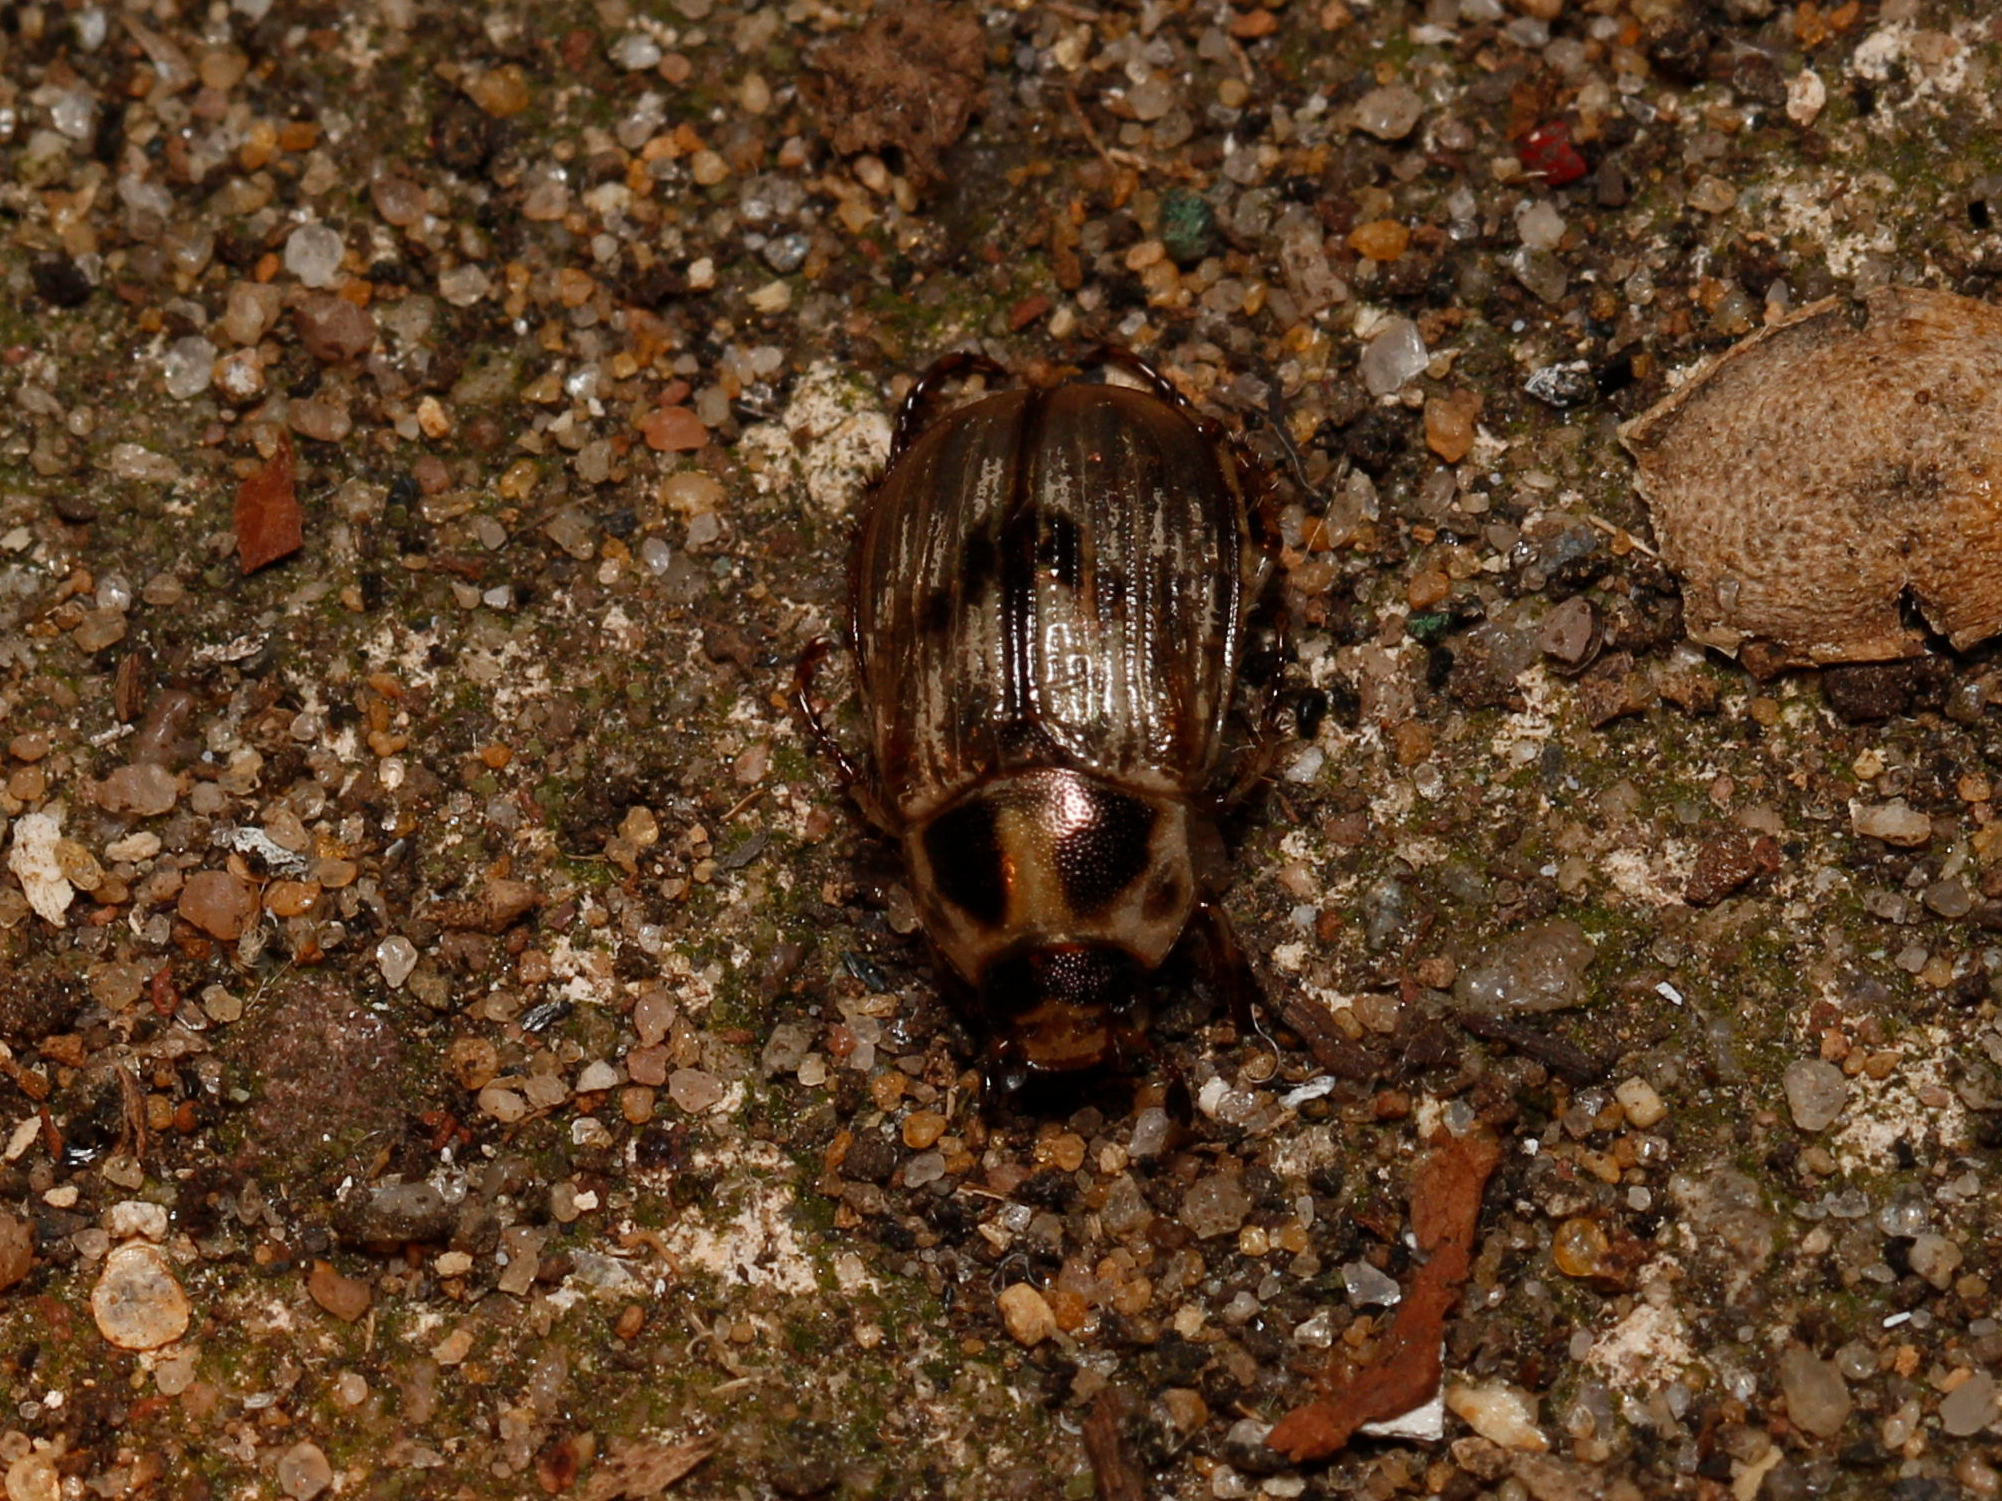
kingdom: Animalia
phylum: Arthropoda
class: Insecta
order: Coleoptera
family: Scarabaeidae
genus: Exomala
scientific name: Exomala orientalis
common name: Oriental beetle
